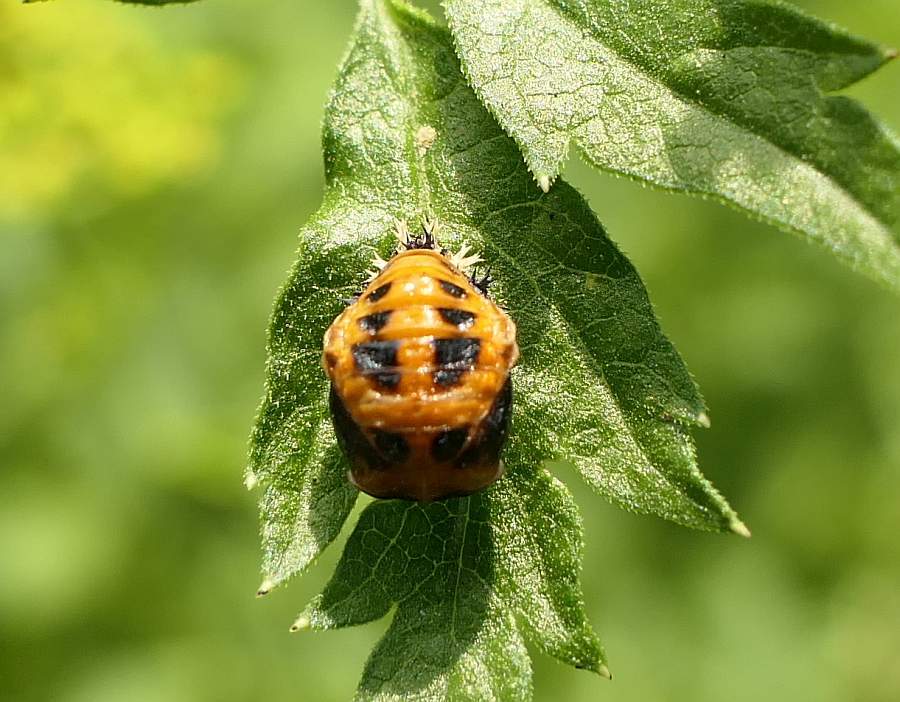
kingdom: Animalia
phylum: Arthropoda
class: Insecta
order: Coleoptera
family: Coccinellidae
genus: Harmonia
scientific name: Harmonia axyridis
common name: Harlequin ladybird
